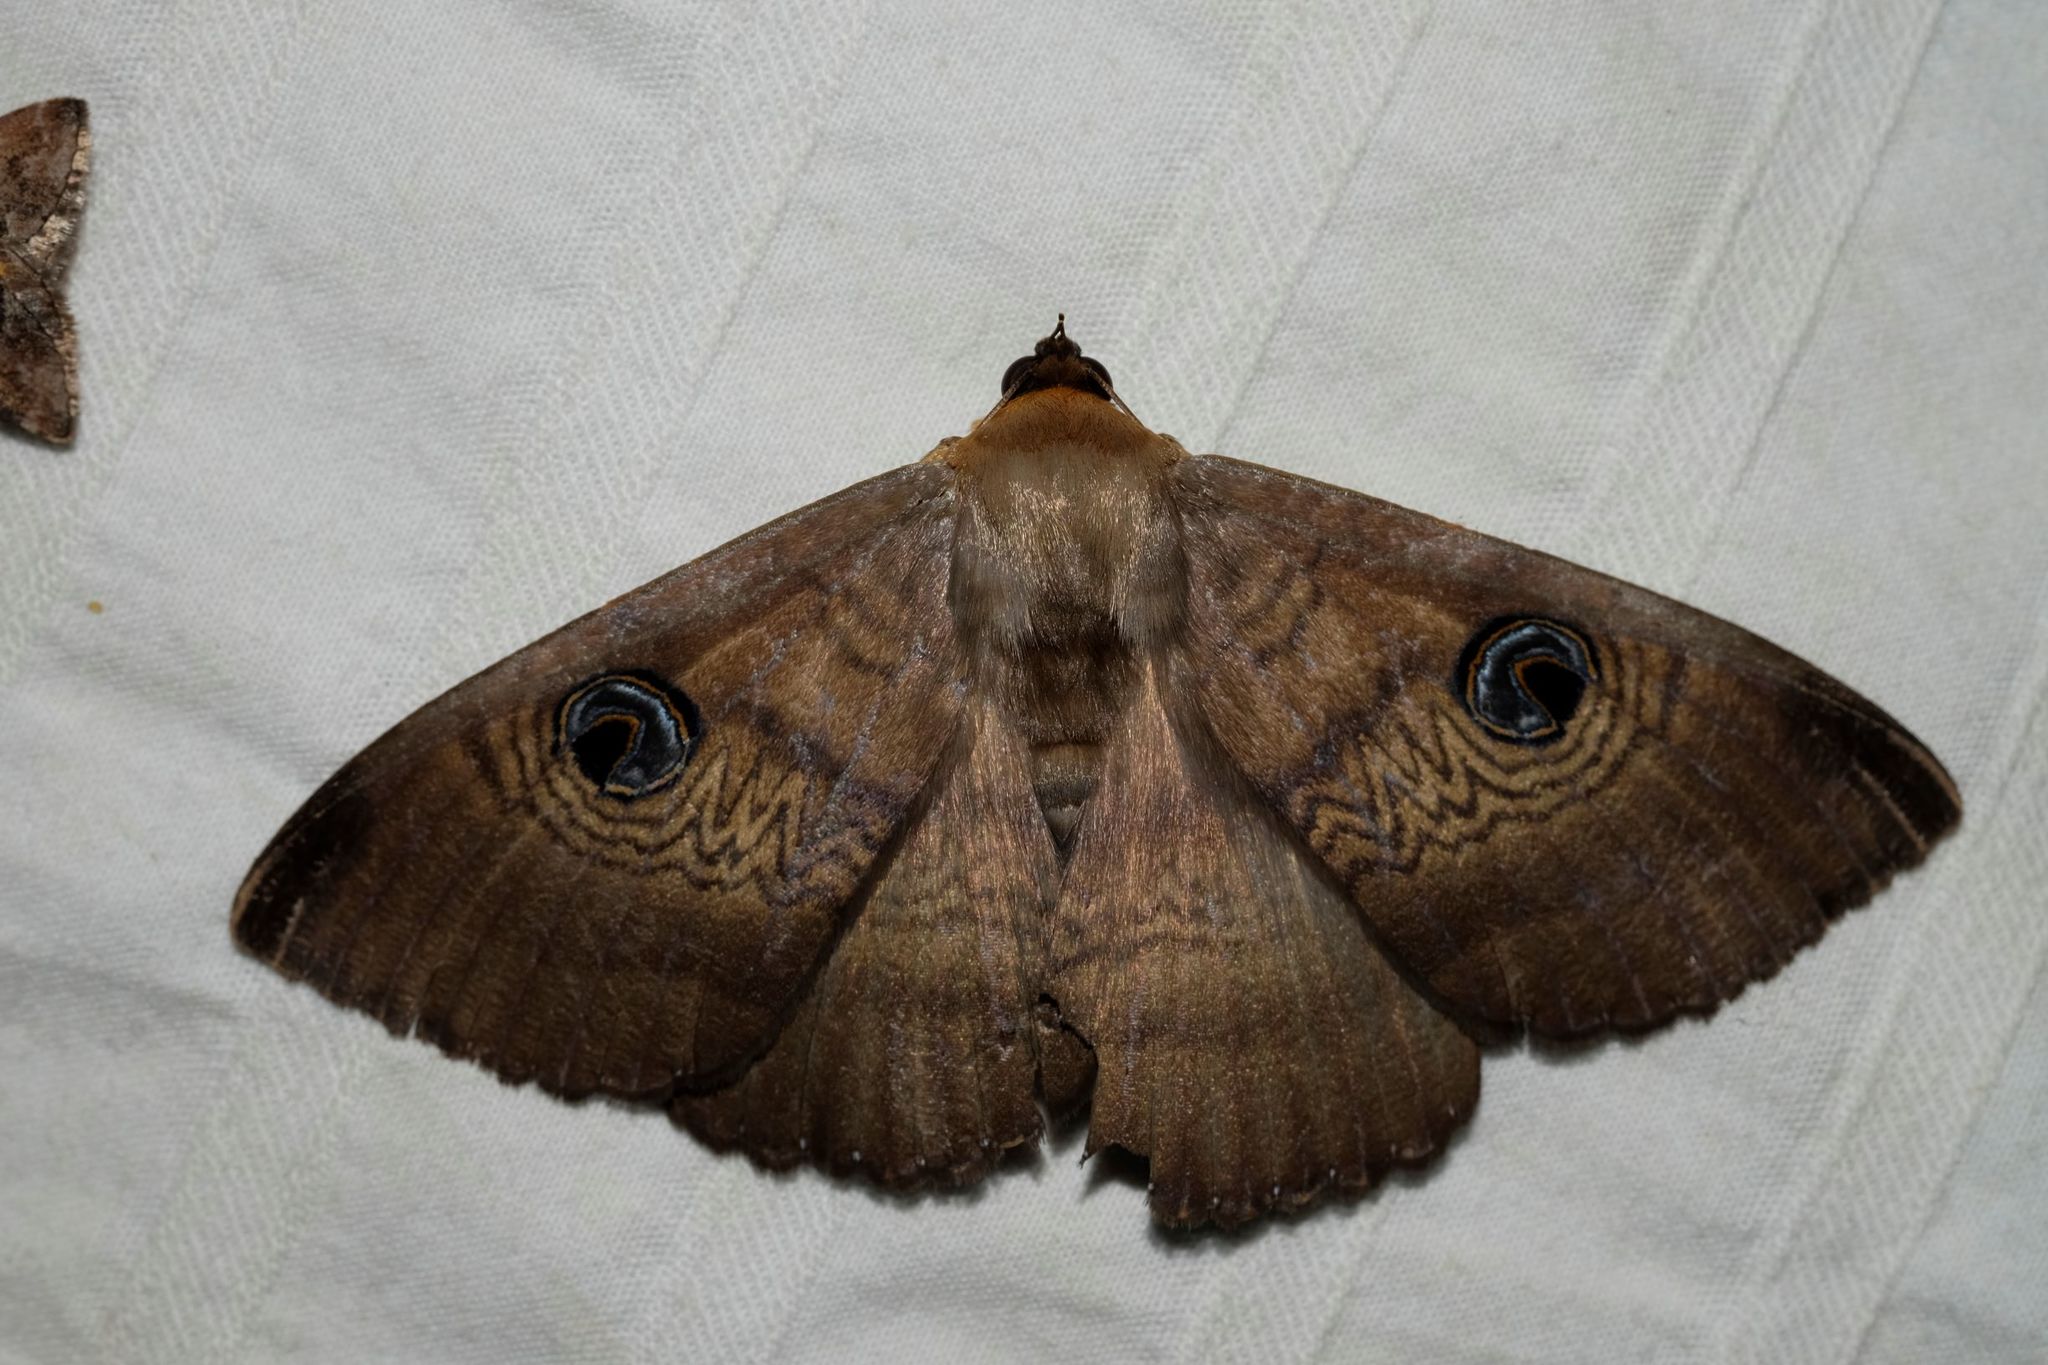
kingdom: Animalia
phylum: Arthropoda
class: Insecta
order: Lepidoptera
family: Erebidae
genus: Dasypodia
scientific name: Dasypodia selenophora
